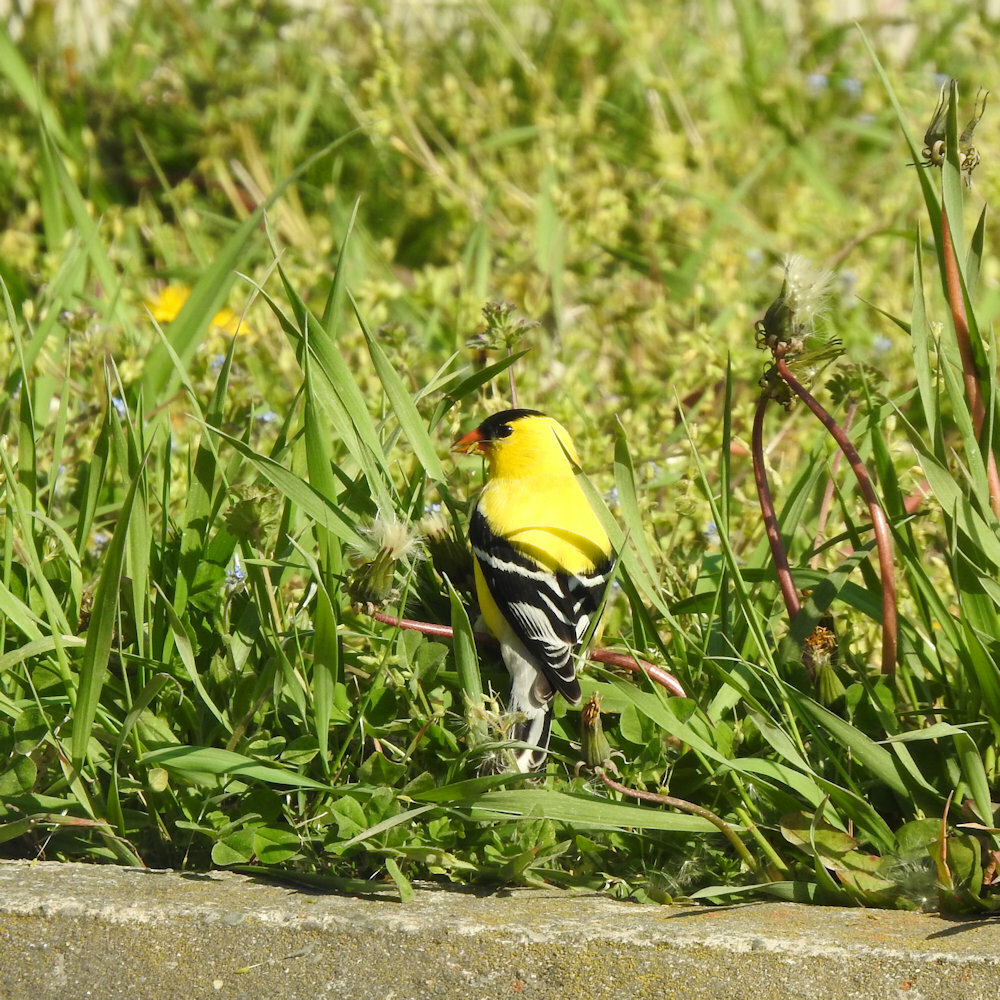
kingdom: Animalia
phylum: Chordata
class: Aves
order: Passeriformes
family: Fringillidae
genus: Spinus
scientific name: Spinus tristis
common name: American goldfinch
